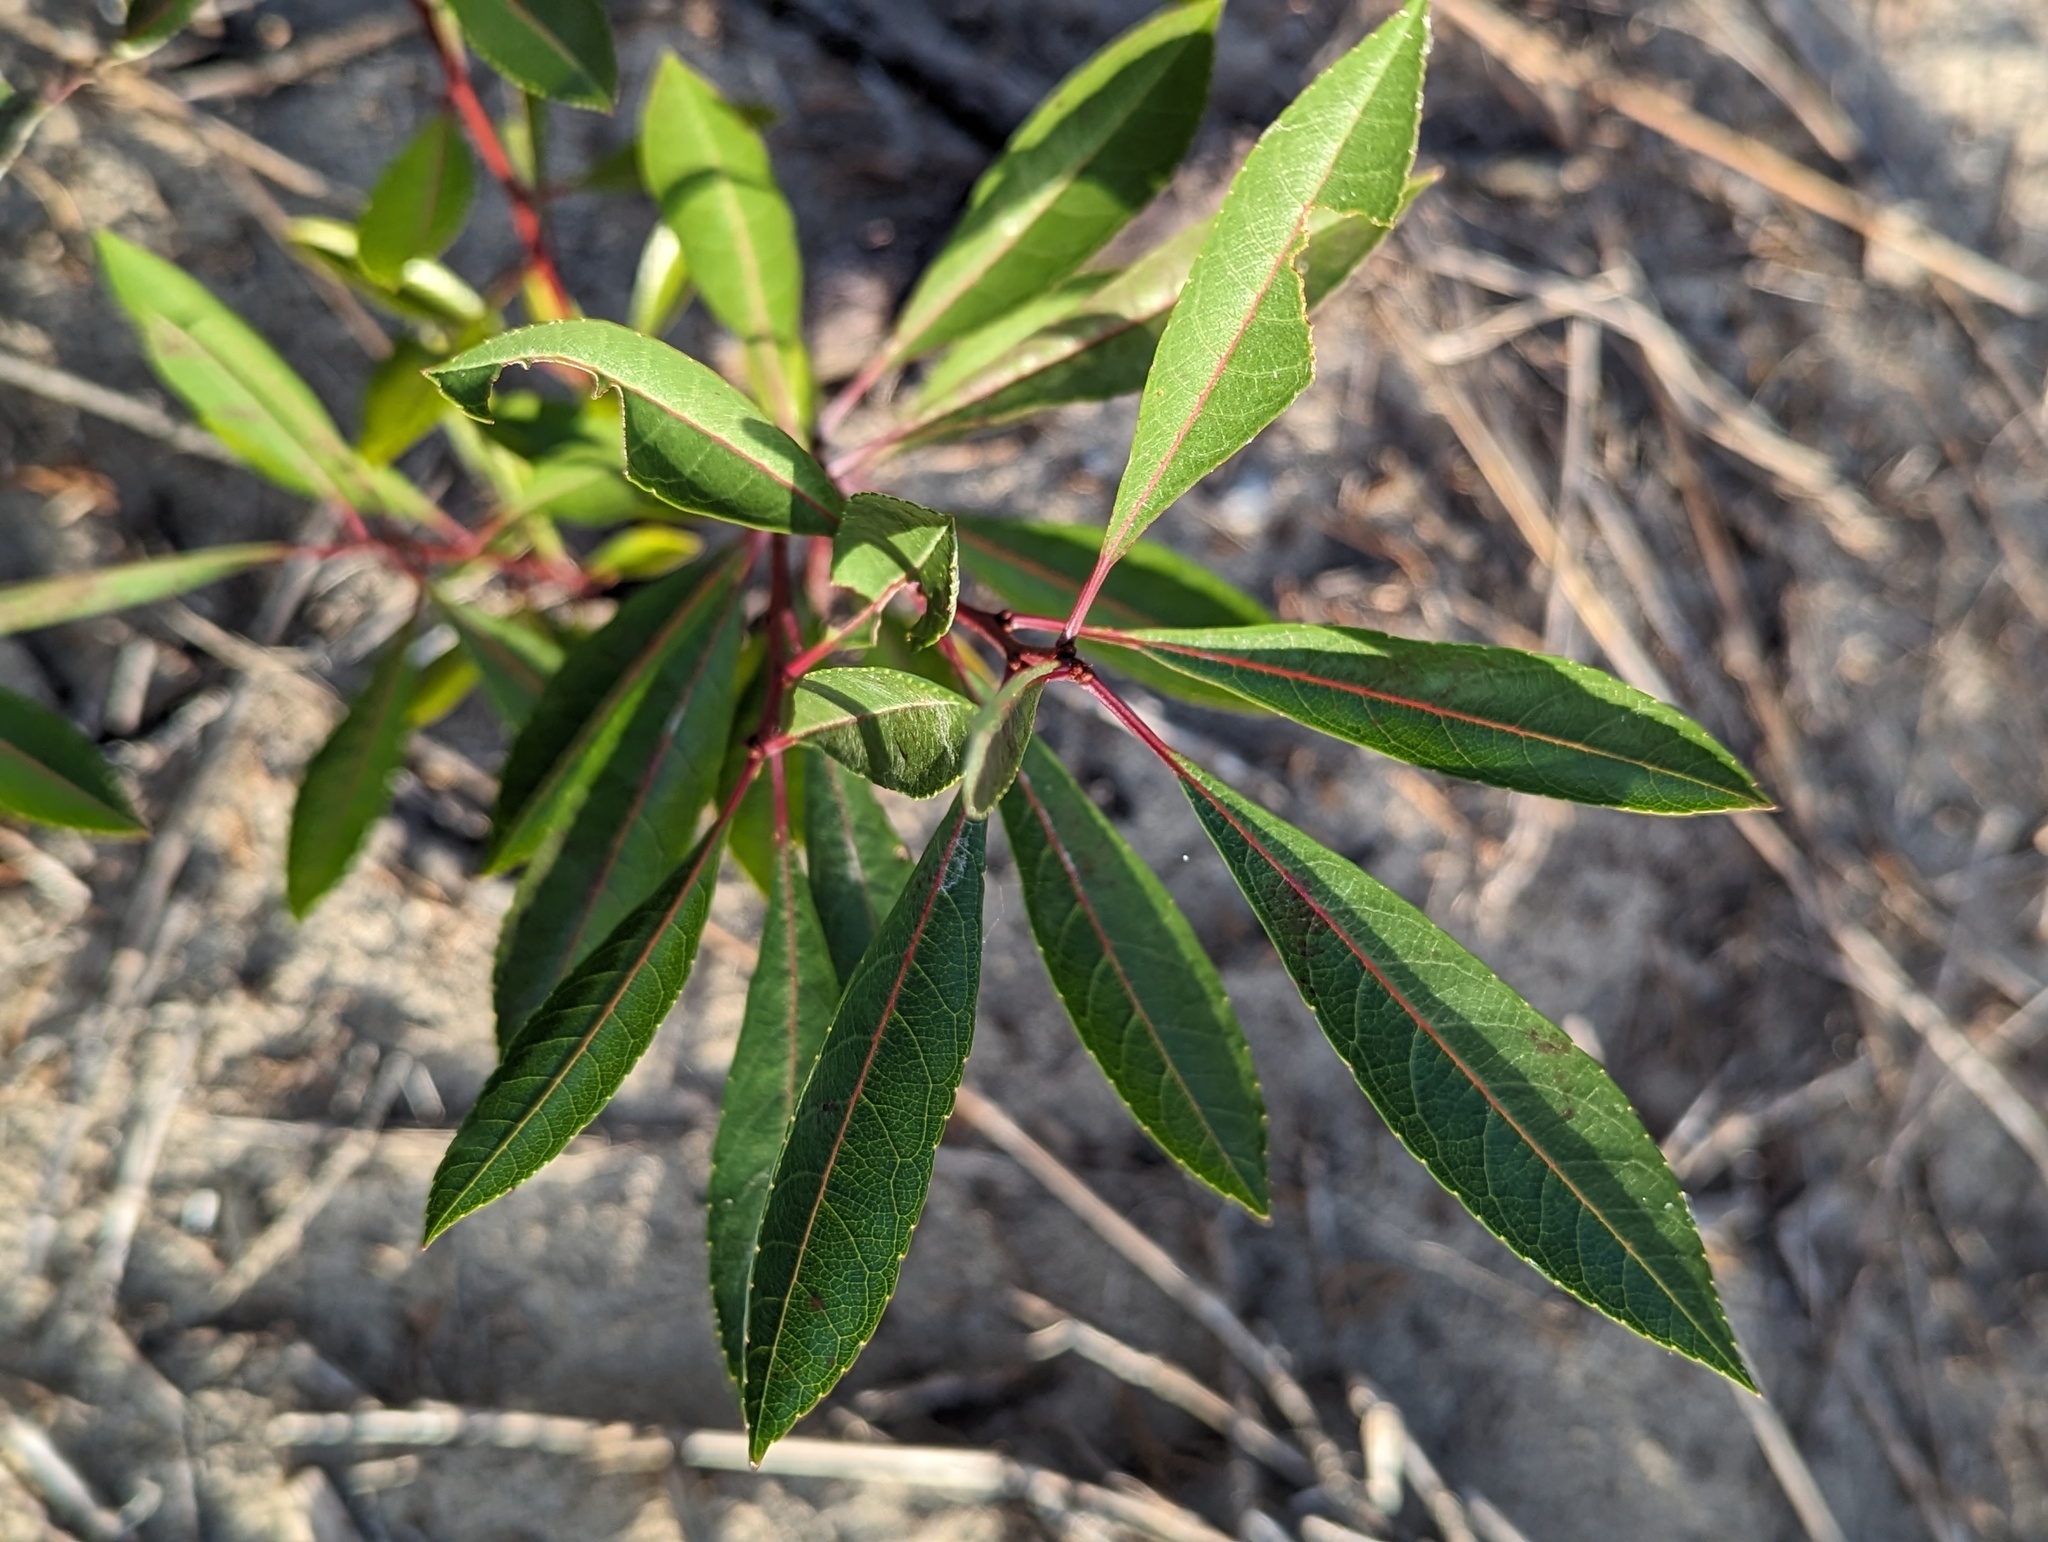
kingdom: Plantae
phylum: Tracheophyta
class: Magnoliopsida
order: Rosales
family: Rosaceae
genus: Prunus
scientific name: Prunus pumila
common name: Dwarf cherry
